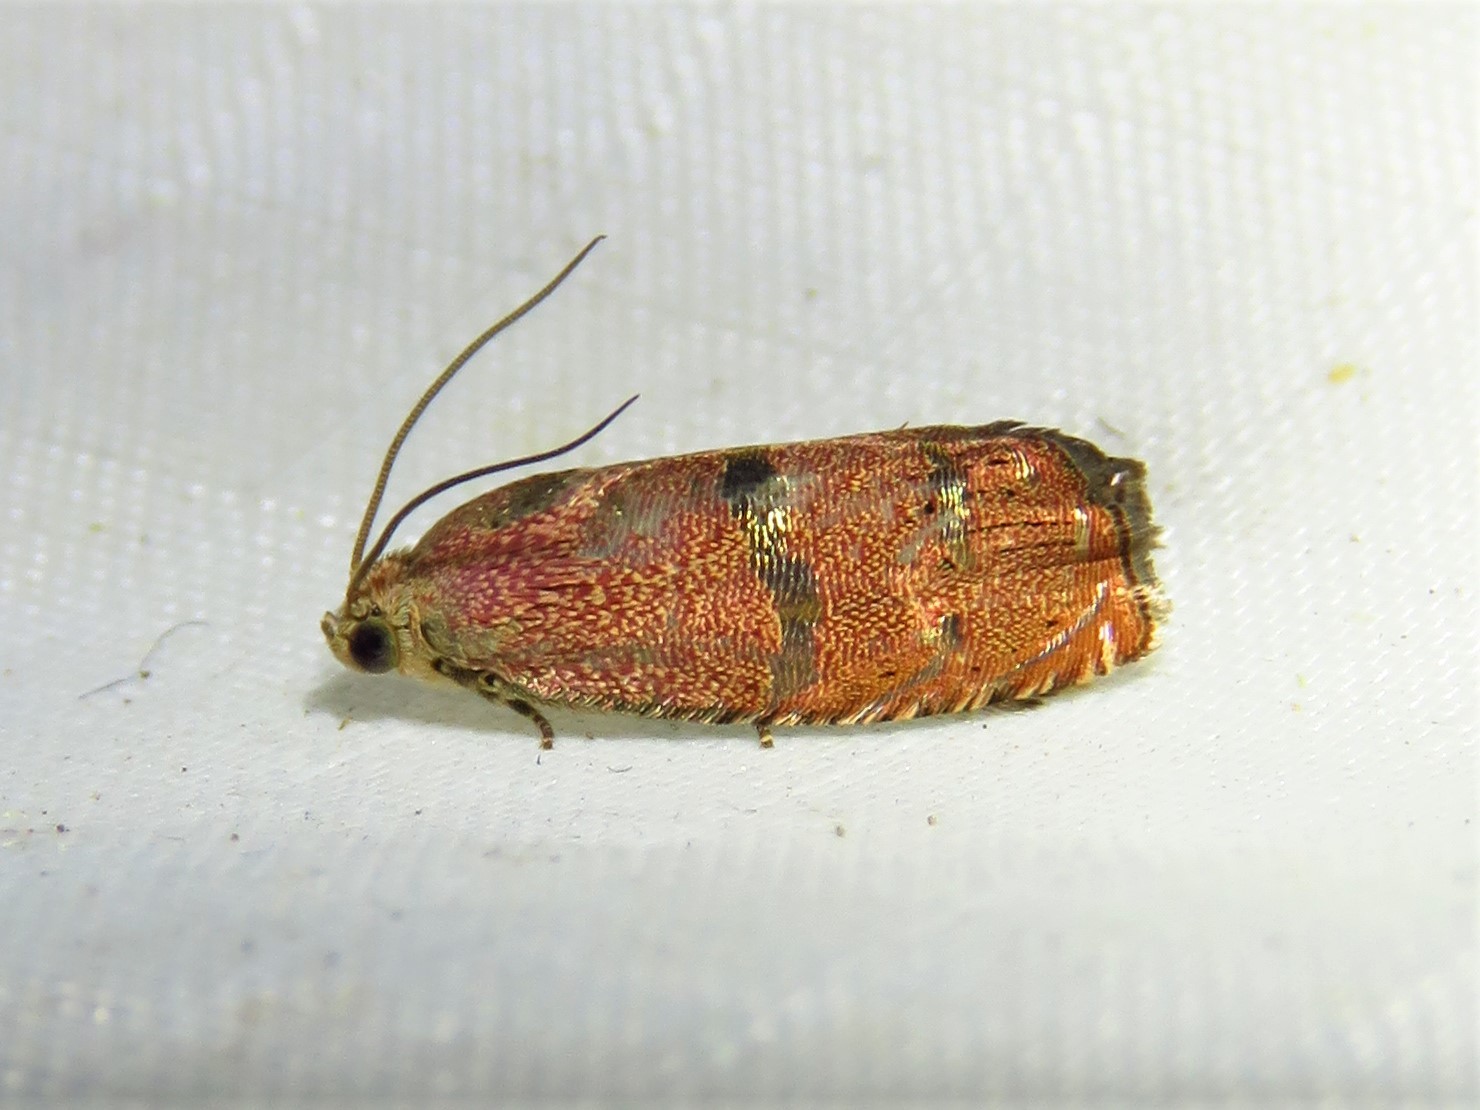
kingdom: Animalia
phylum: Arthropoda
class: Insecta
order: Lepidoptera
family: Tortricidae
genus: Cydia
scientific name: Cydia latiferreana
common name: Filbertworm moth
